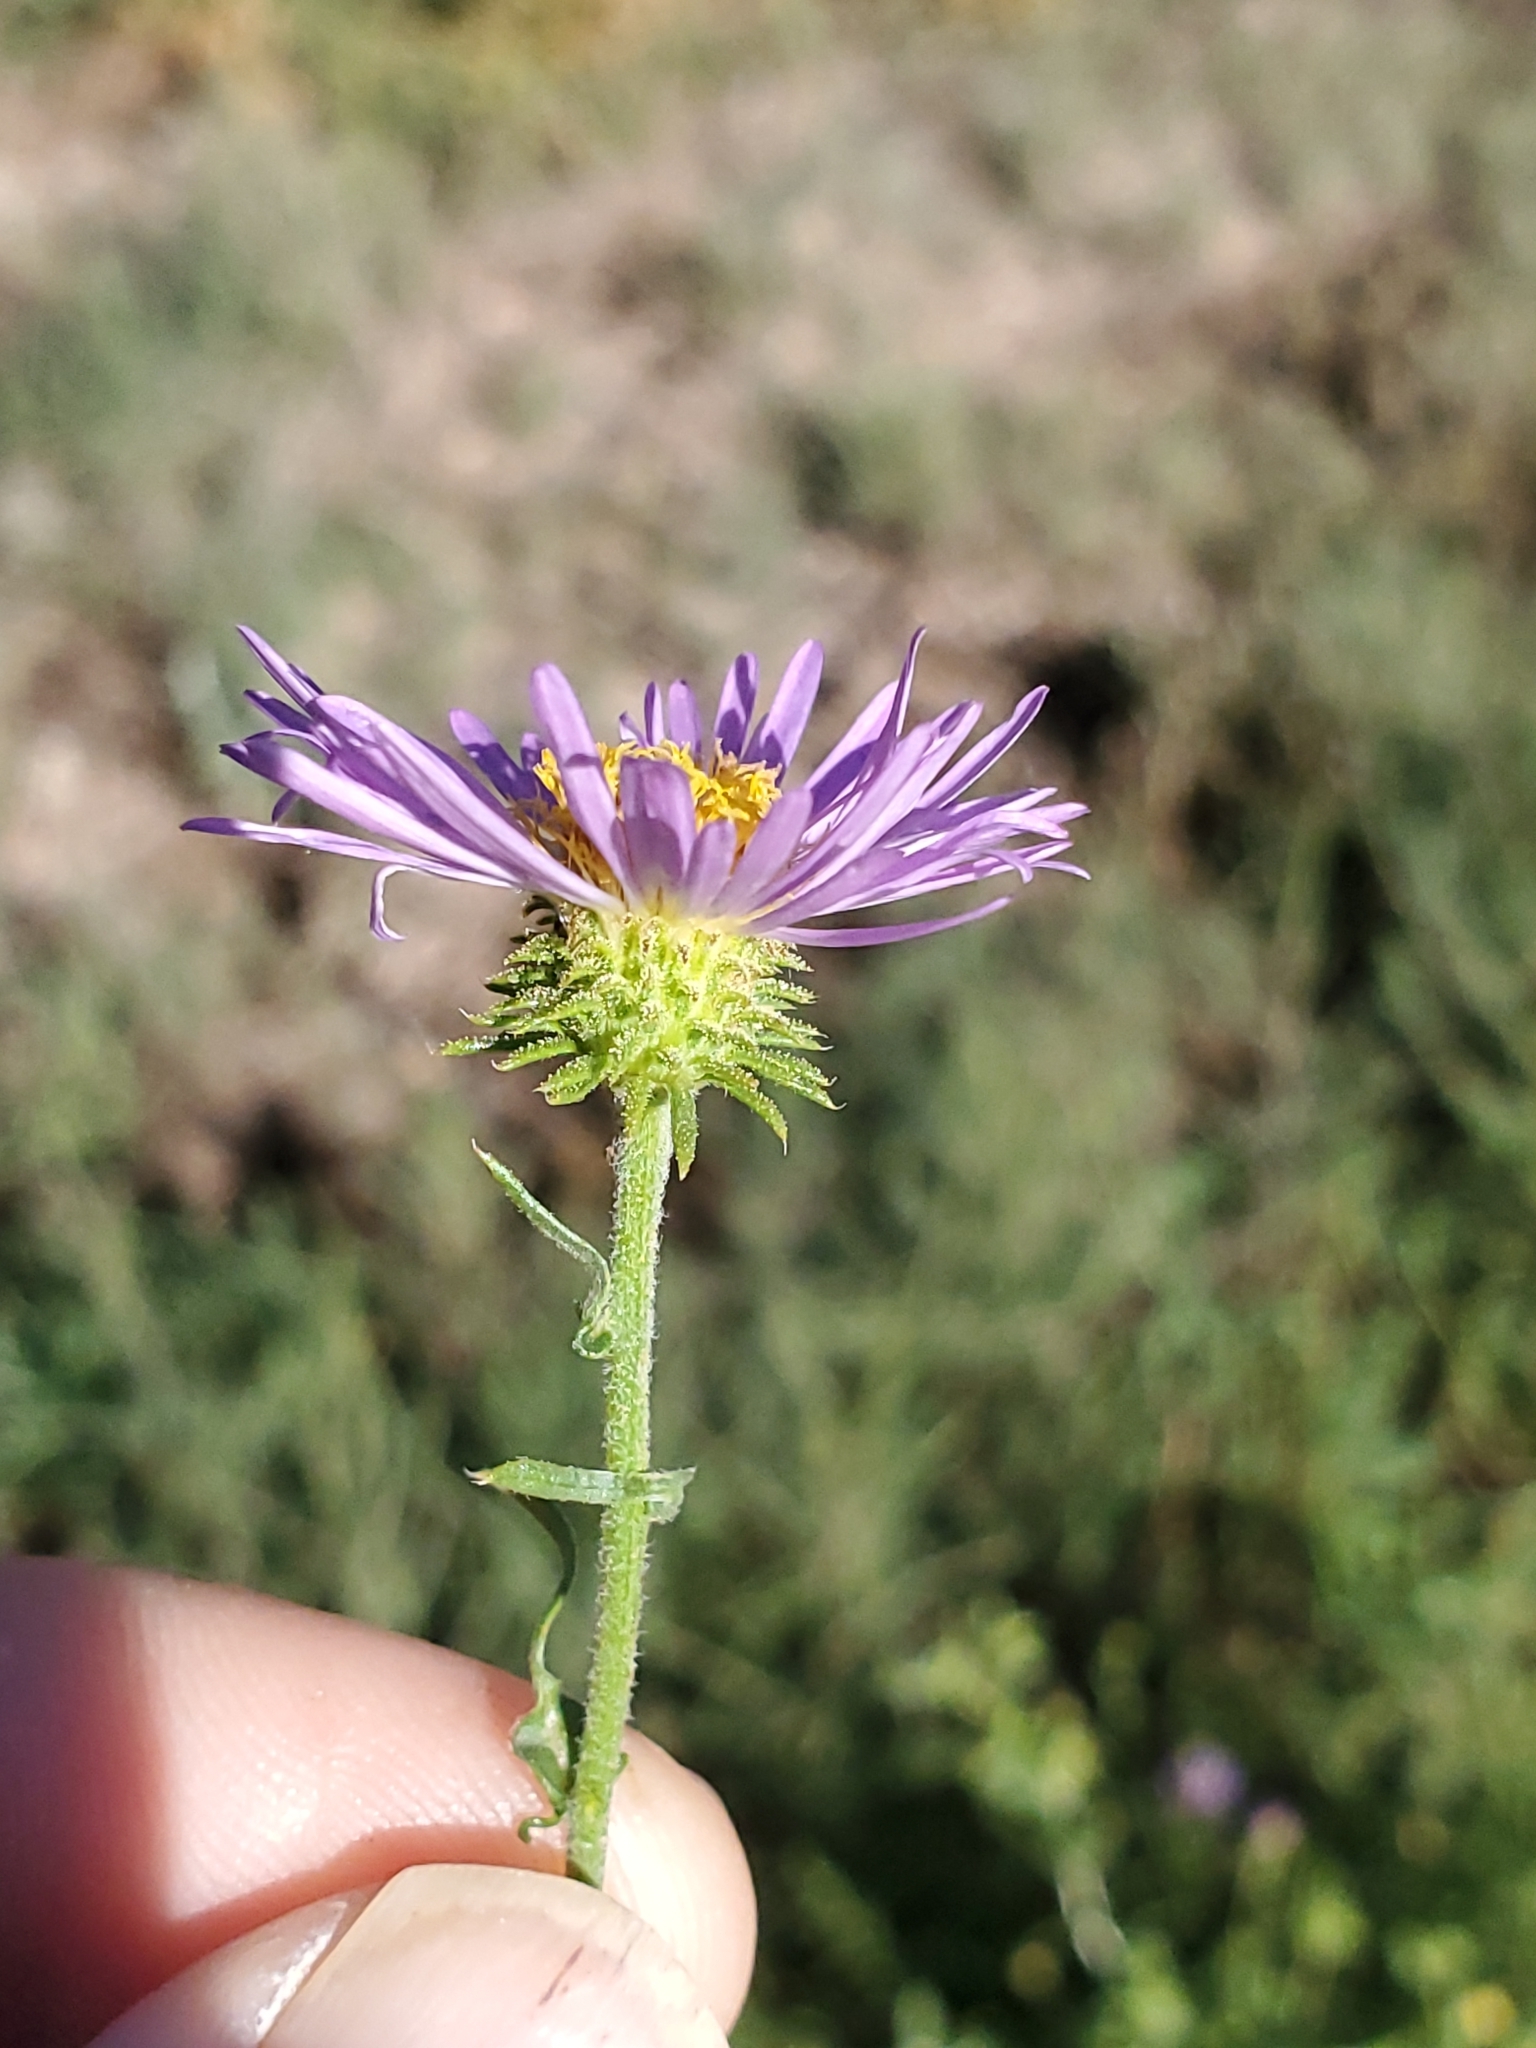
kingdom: Plantae
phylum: Tracheophyta
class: Magnoliopsida
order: Asterales
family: Asteraceae
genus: Dieteria
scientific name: Dieteria canescens
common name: Hoary-aster
